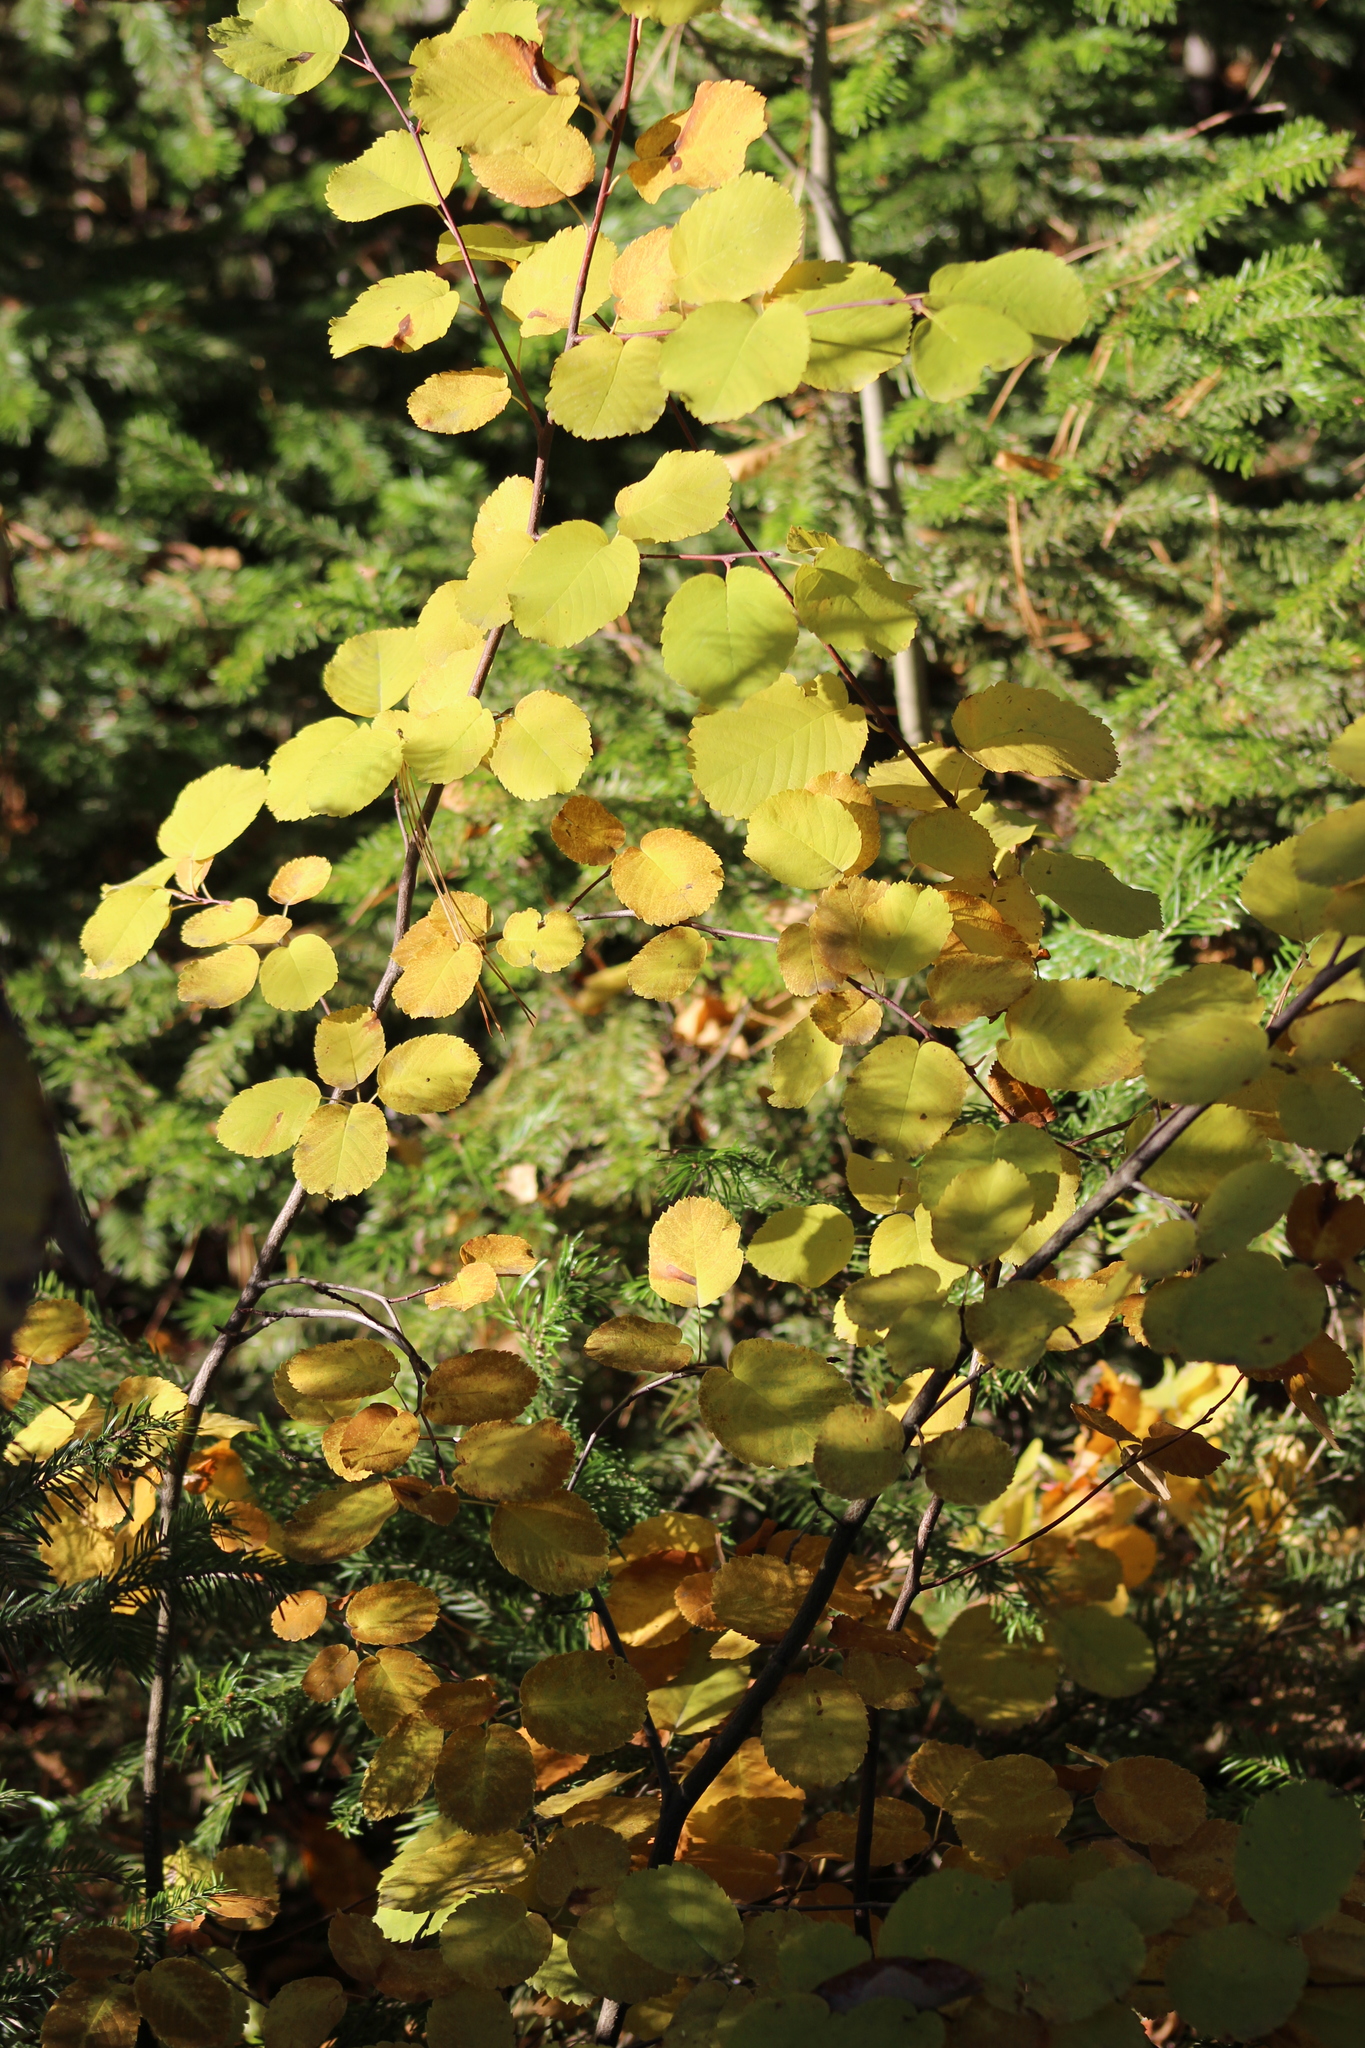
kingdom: Plantae
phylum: Tracheophyta
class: Magnoliopsida
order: Rosales
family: Rosaceae
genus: Amelanchier
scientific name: Amelanchier alnifolia
